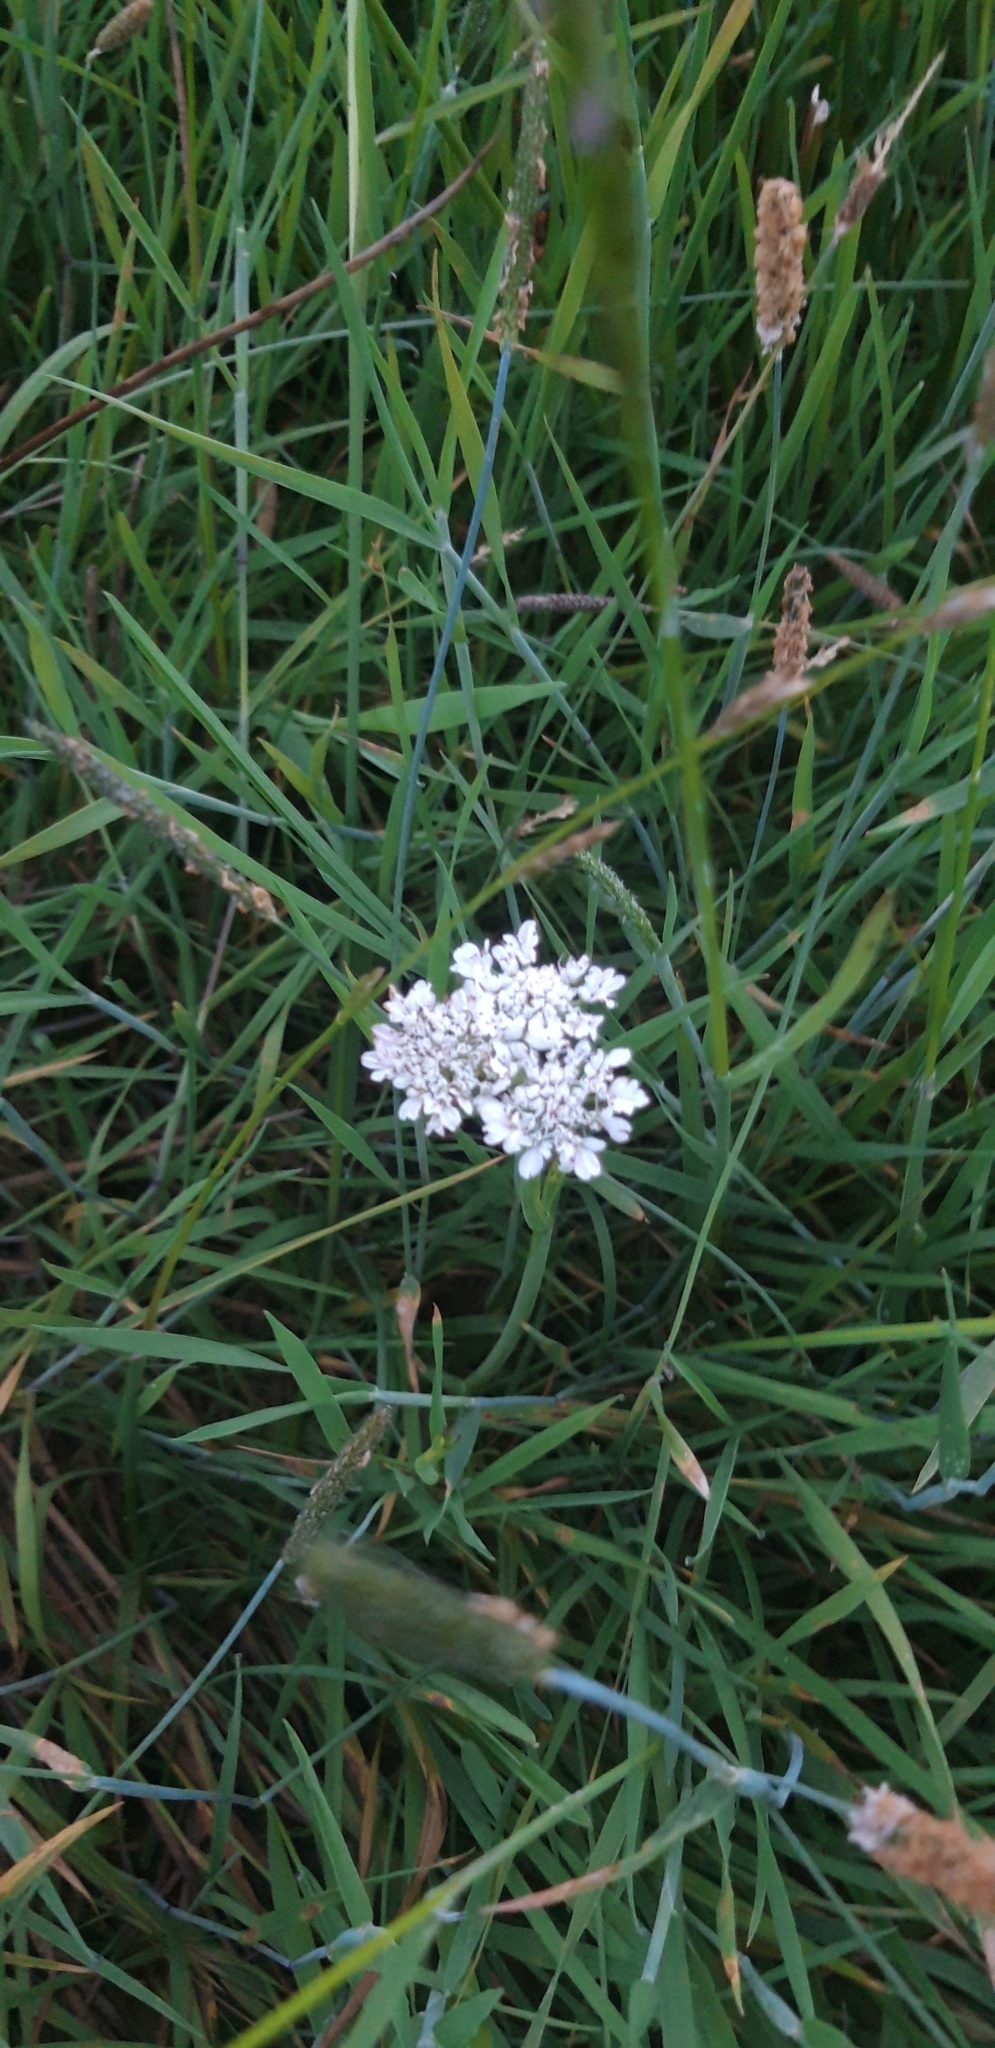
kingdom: Plantae
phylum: Tracheophyta
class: Magnoliopsida
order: Apiales
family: Apiaceae
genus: Oenanthe
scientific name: Oenanthe fistulosa
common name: Tubular water-dropwort
